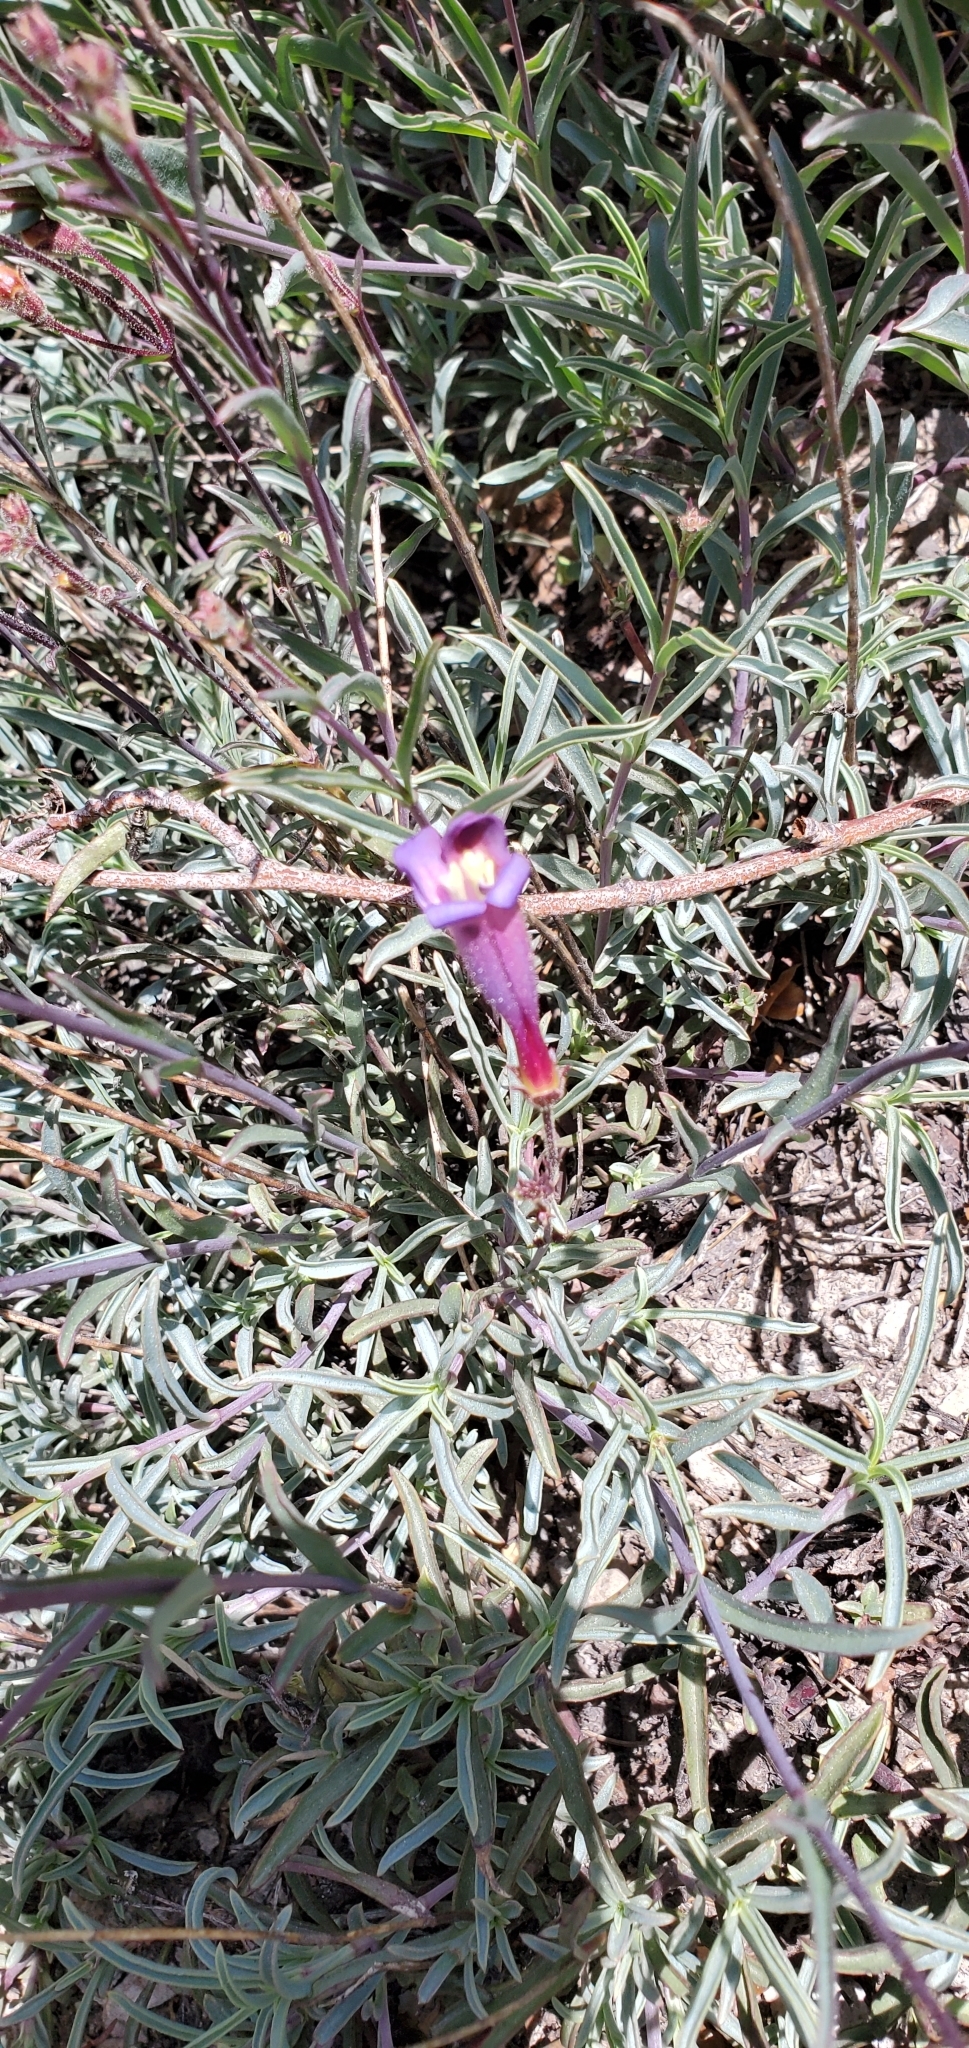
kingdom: Plantae
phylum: Tracheophyta
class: Magnoliopsida
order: Lamiales
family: Plantaginaceae
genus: Penstemon
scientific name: Penstemon neotericus
